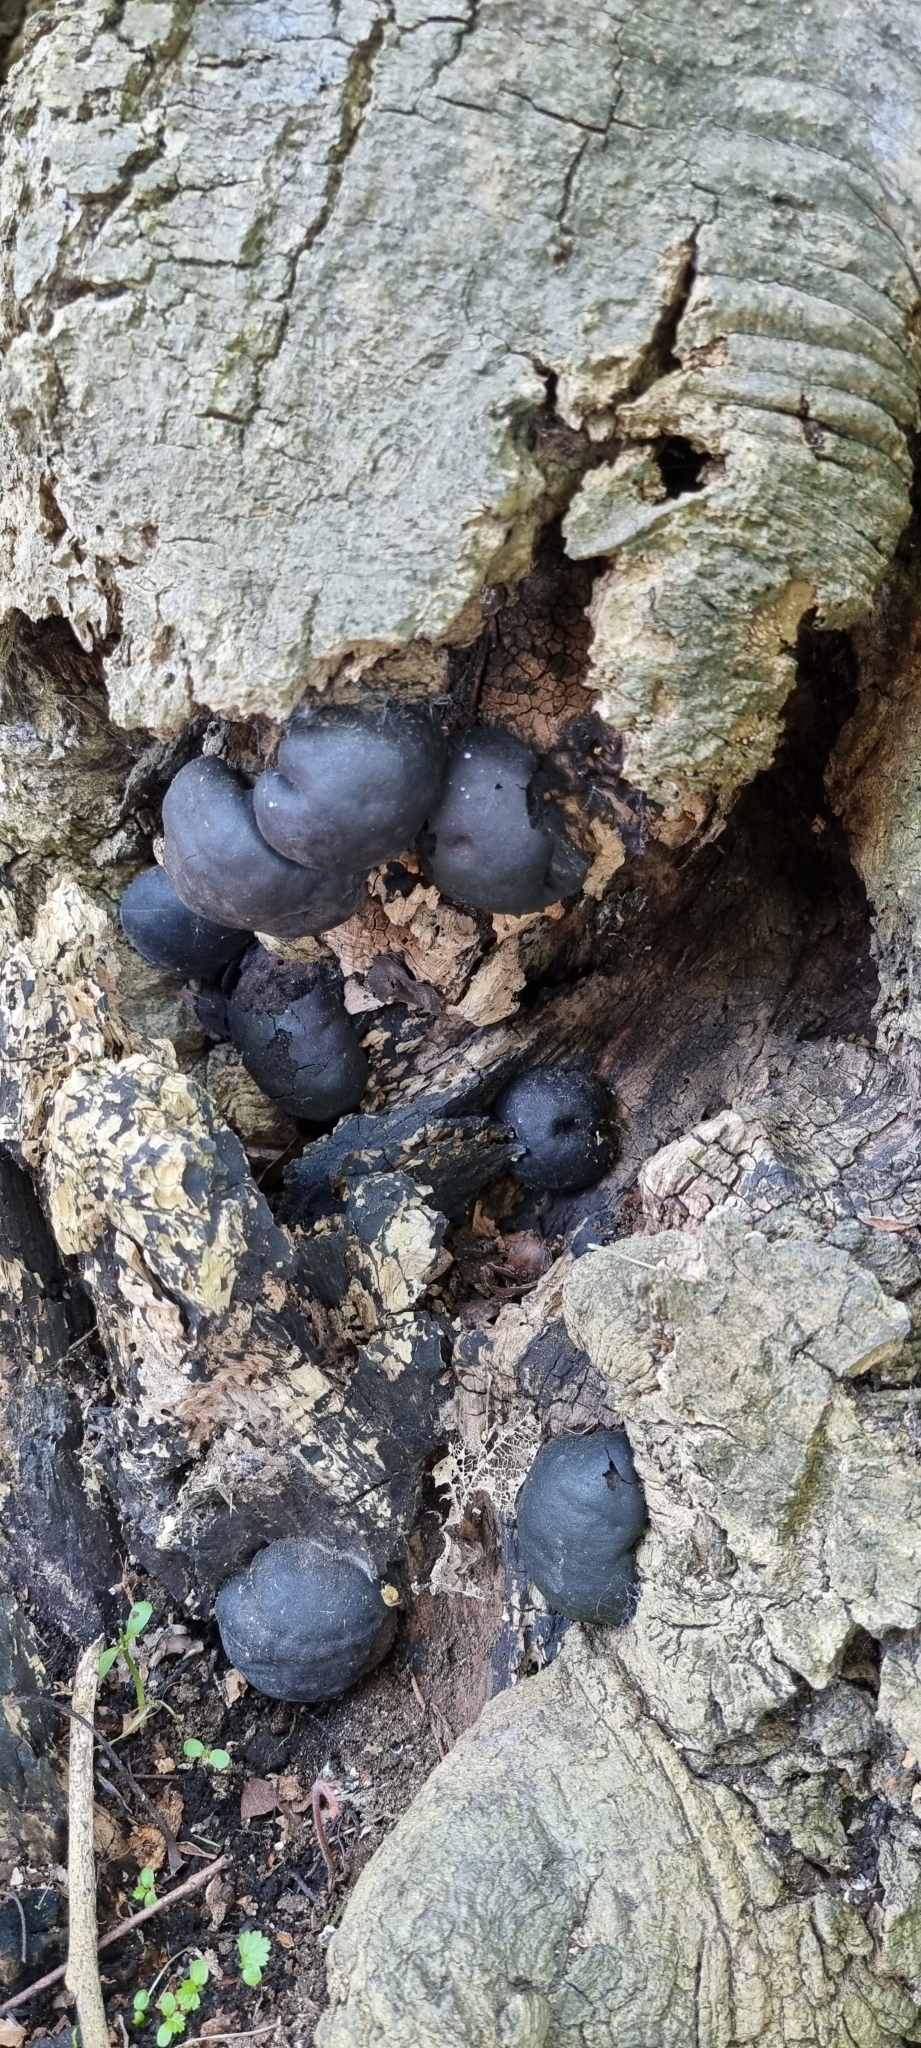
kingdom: Fungi
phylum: Ascomycota
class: Sordariomycetes
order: Xylariales
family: Hypoxylaceae
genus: Daldinia
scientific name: Daldinia concentrica
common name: Cramp balls
